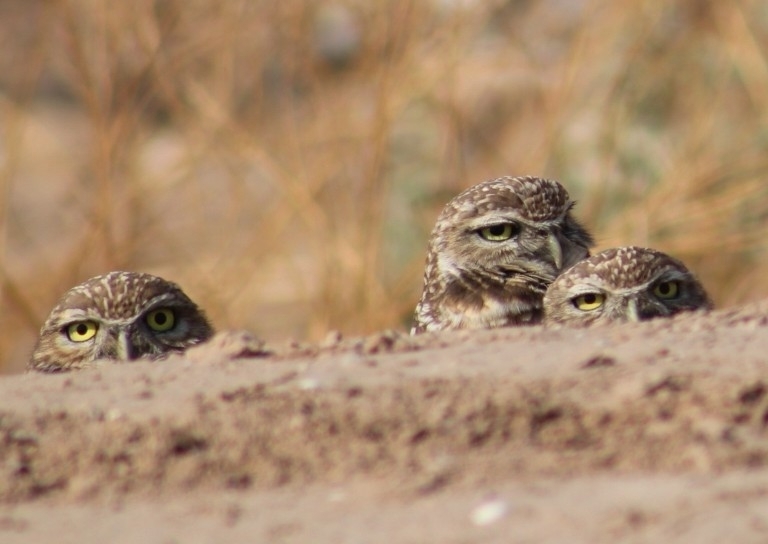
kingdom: Animalia
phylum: Chordata
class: Aves
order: Strigiformes
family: Strigidae
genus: Athene
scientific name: Athene cunicularia
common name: Burrowing owl
